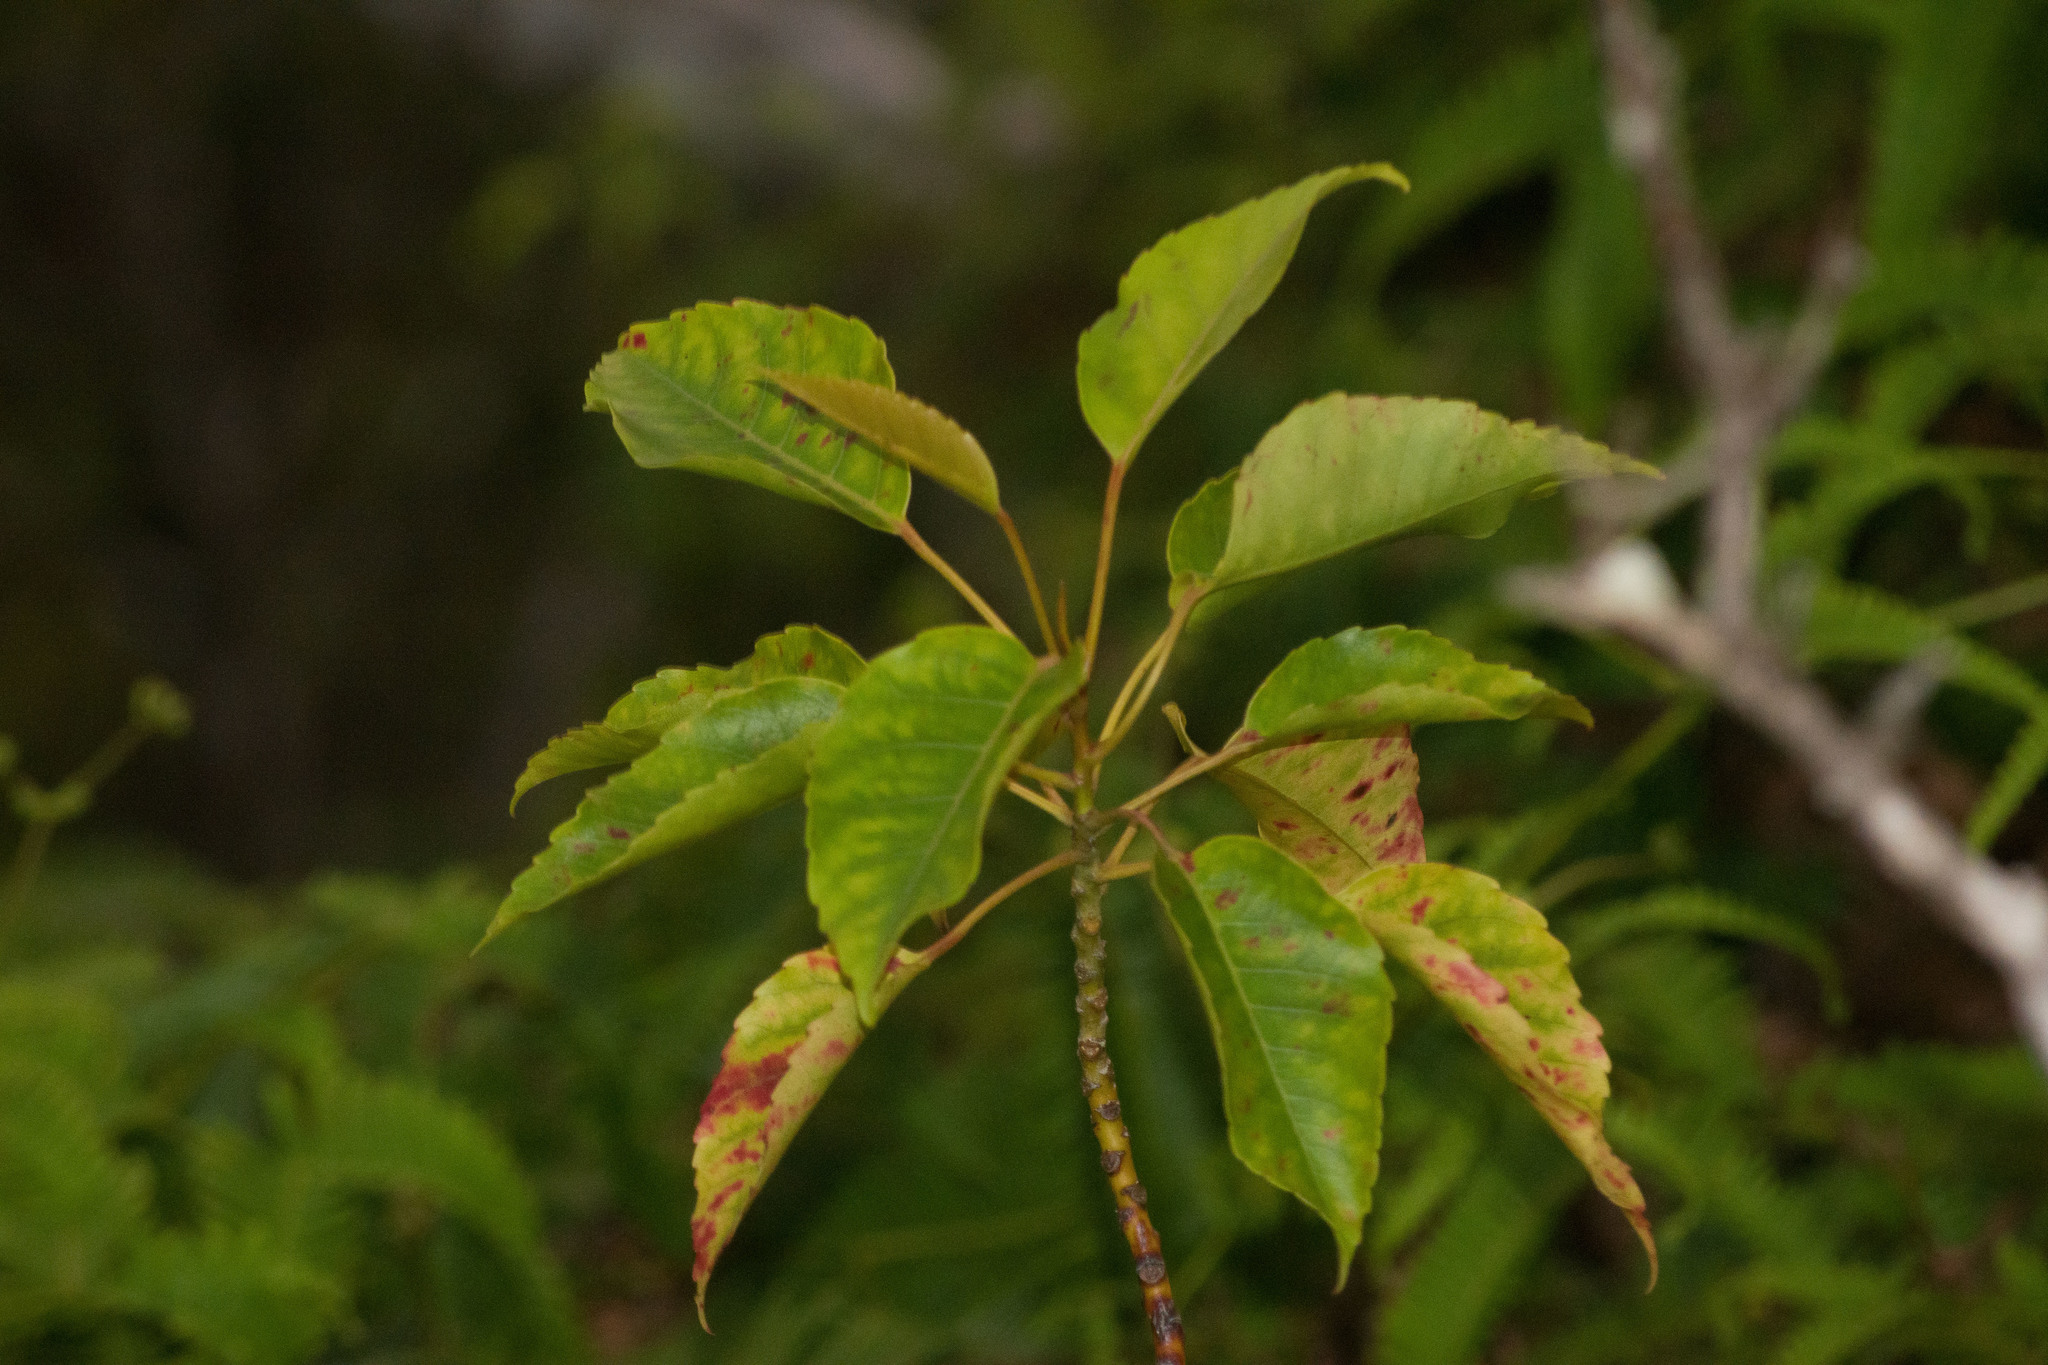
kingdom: Plantae
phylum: Tracheophyta
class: Magnoliopsida
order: Oxalidales
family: Elaeocarpaceae
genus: Elaeocarpus
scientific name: Elaeocarpus bifidus
